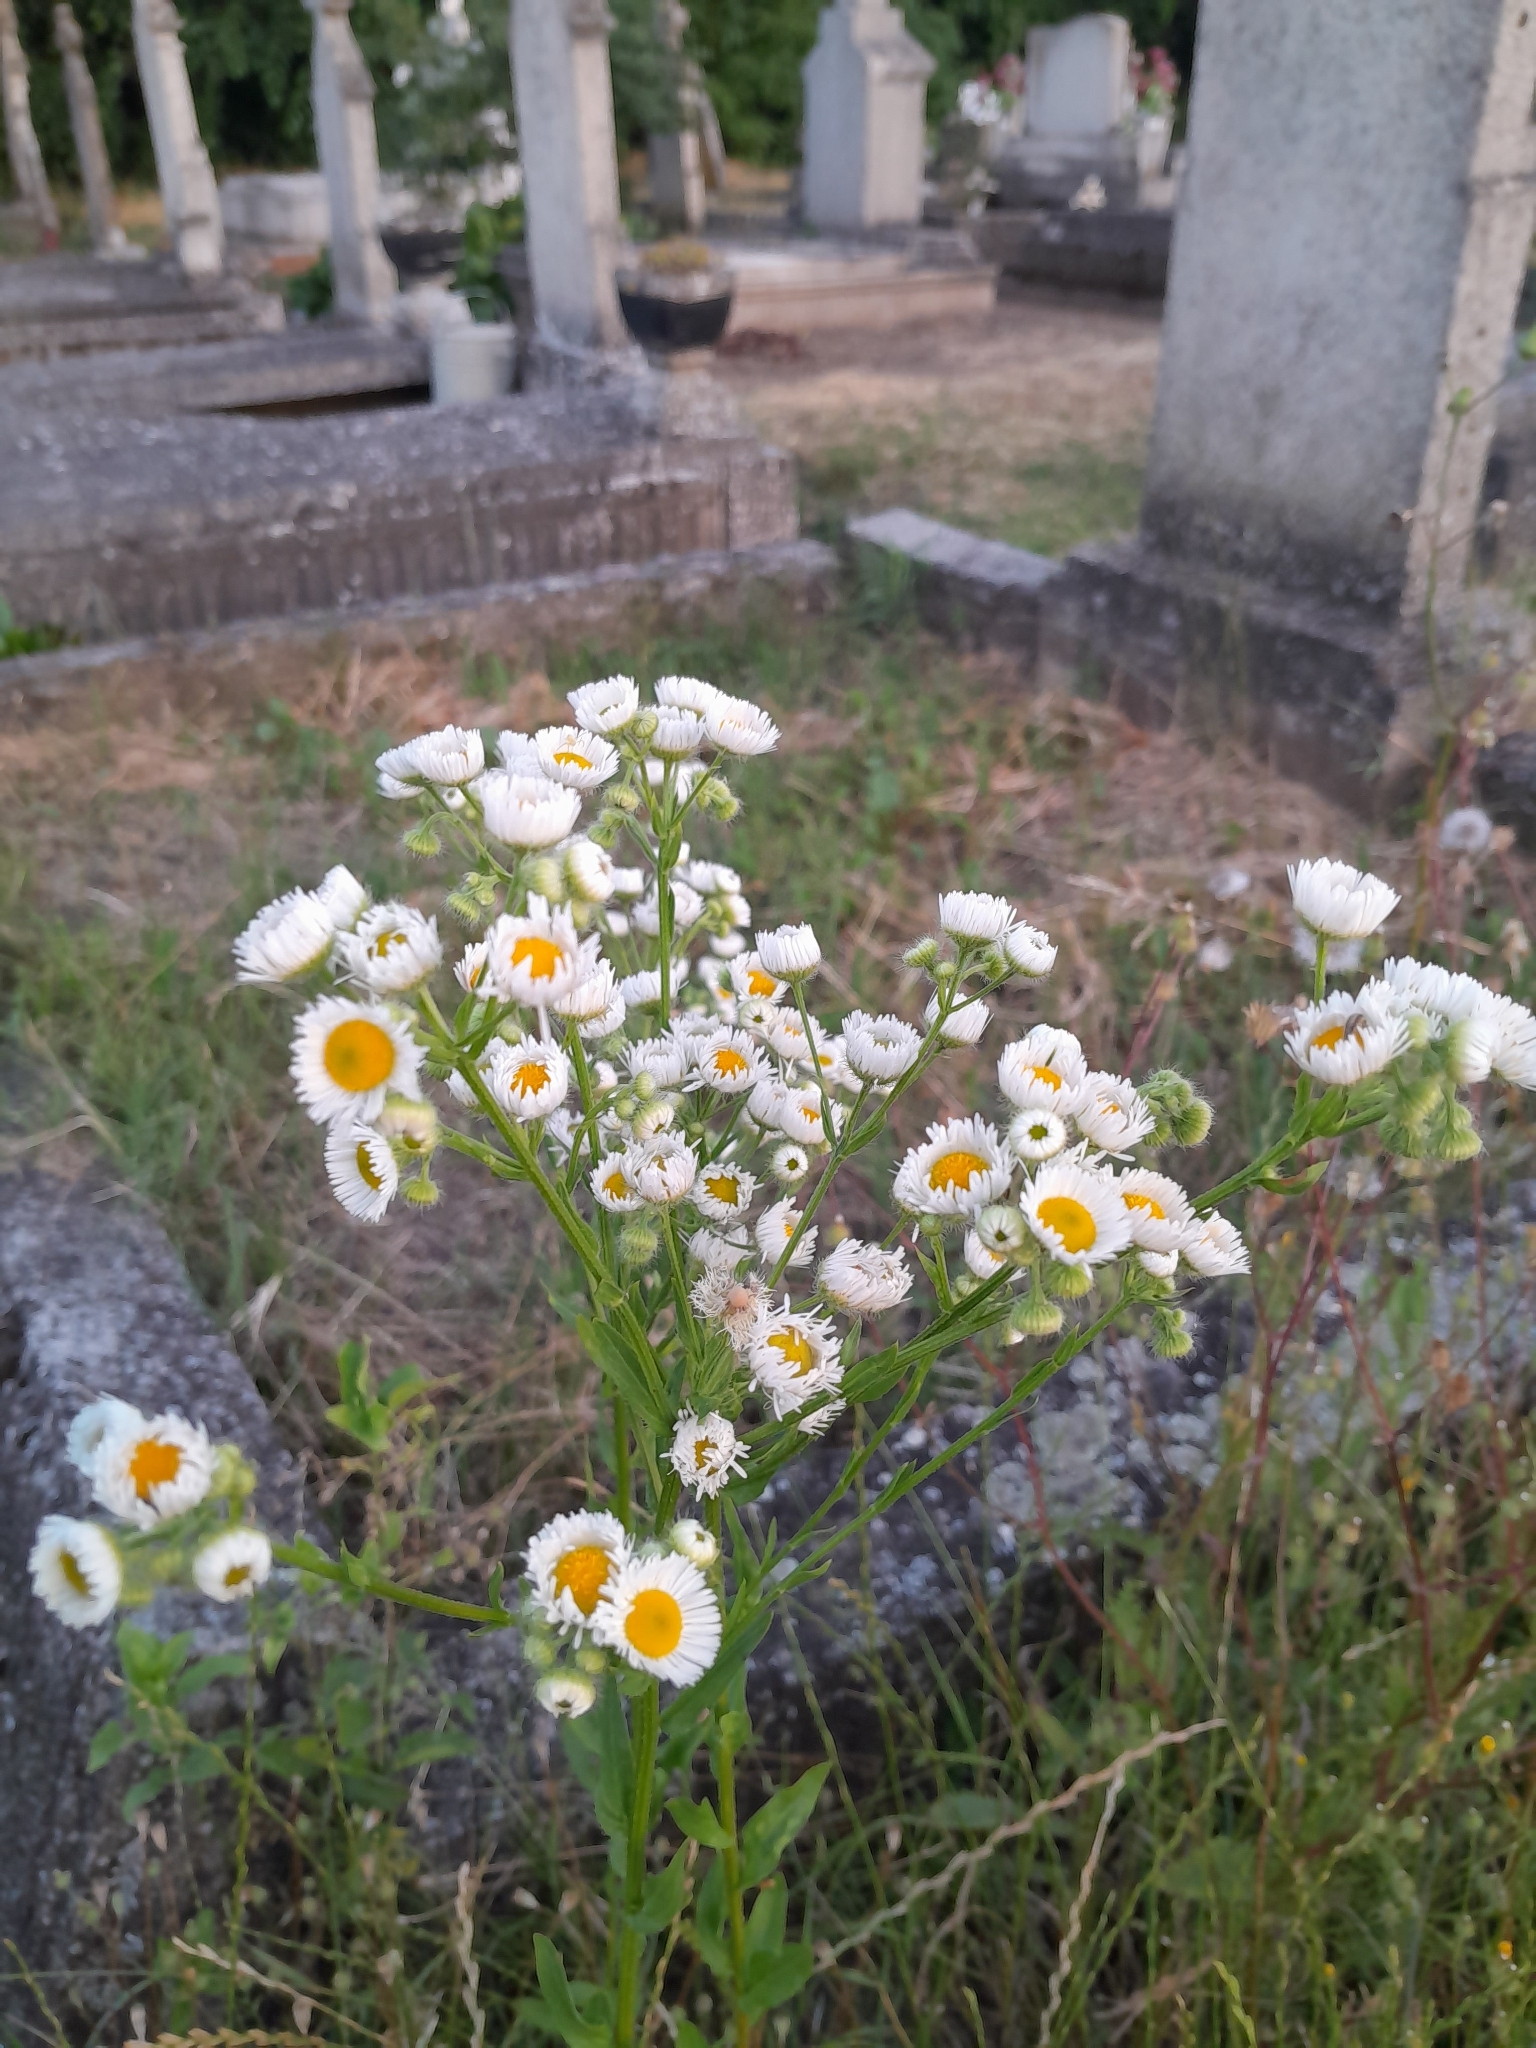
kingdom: Plantae
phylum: Tracheophyta
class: Magnoliopsida
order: Asterales
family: Asteraceae
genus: Erigeron
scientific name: Erigeron annuus
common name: Tall fleabane
